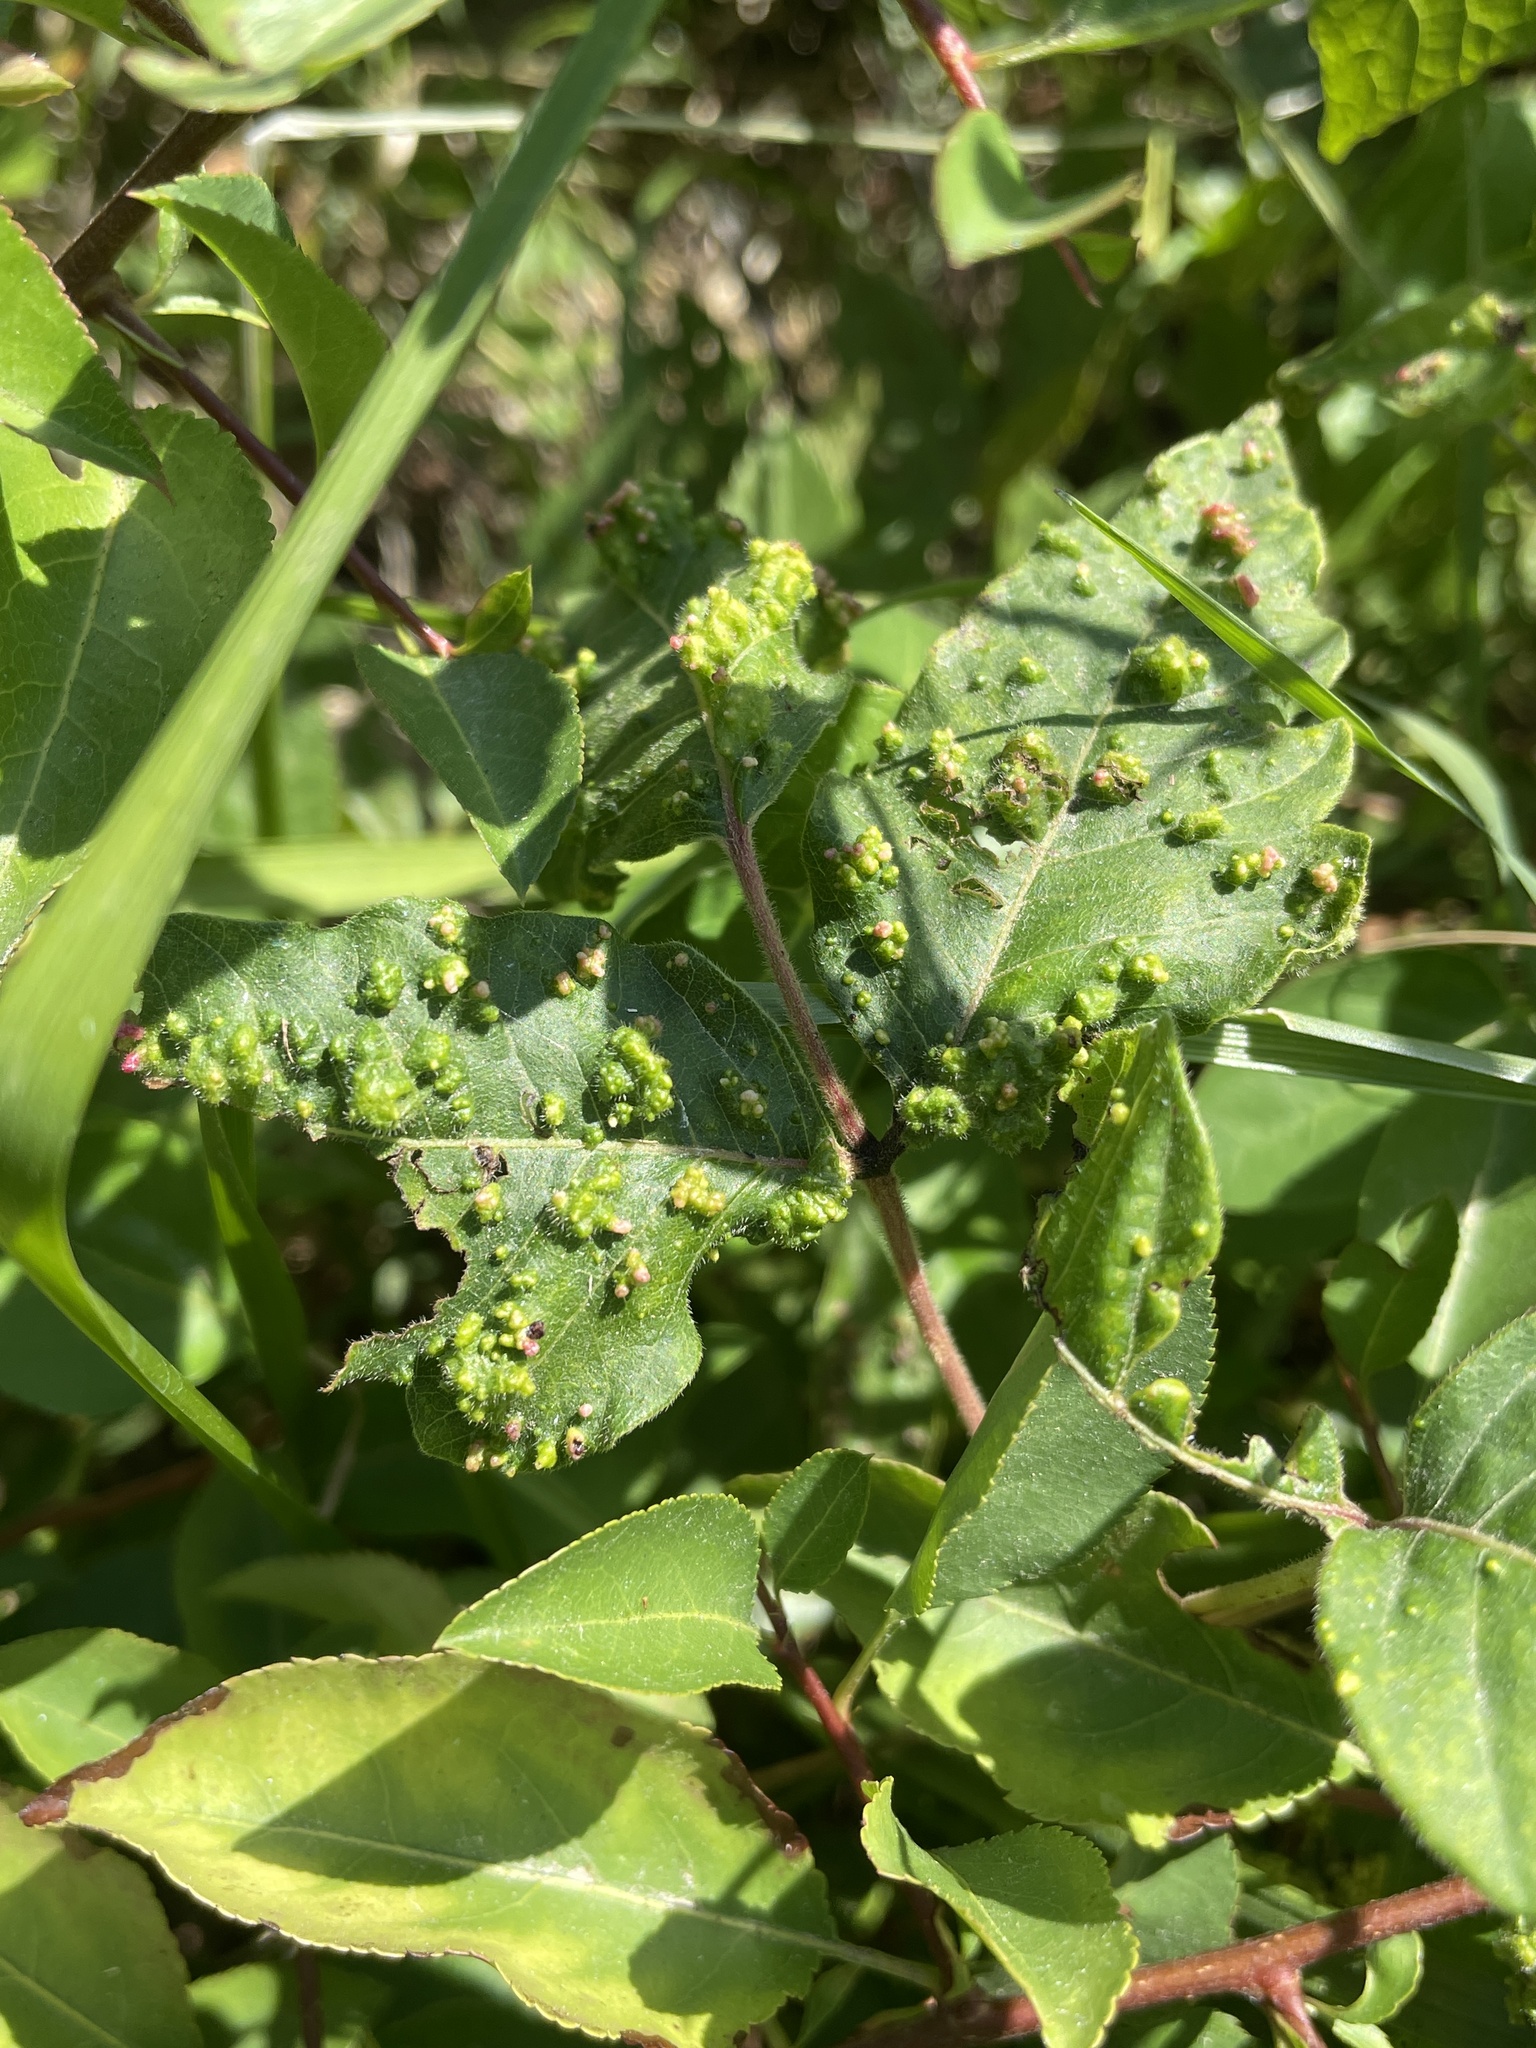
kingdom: Animalia
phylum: Arthropoda
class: Arachnida
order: Trombidiformes
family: Eriophyidae
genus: Aculops
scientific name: Aculops
